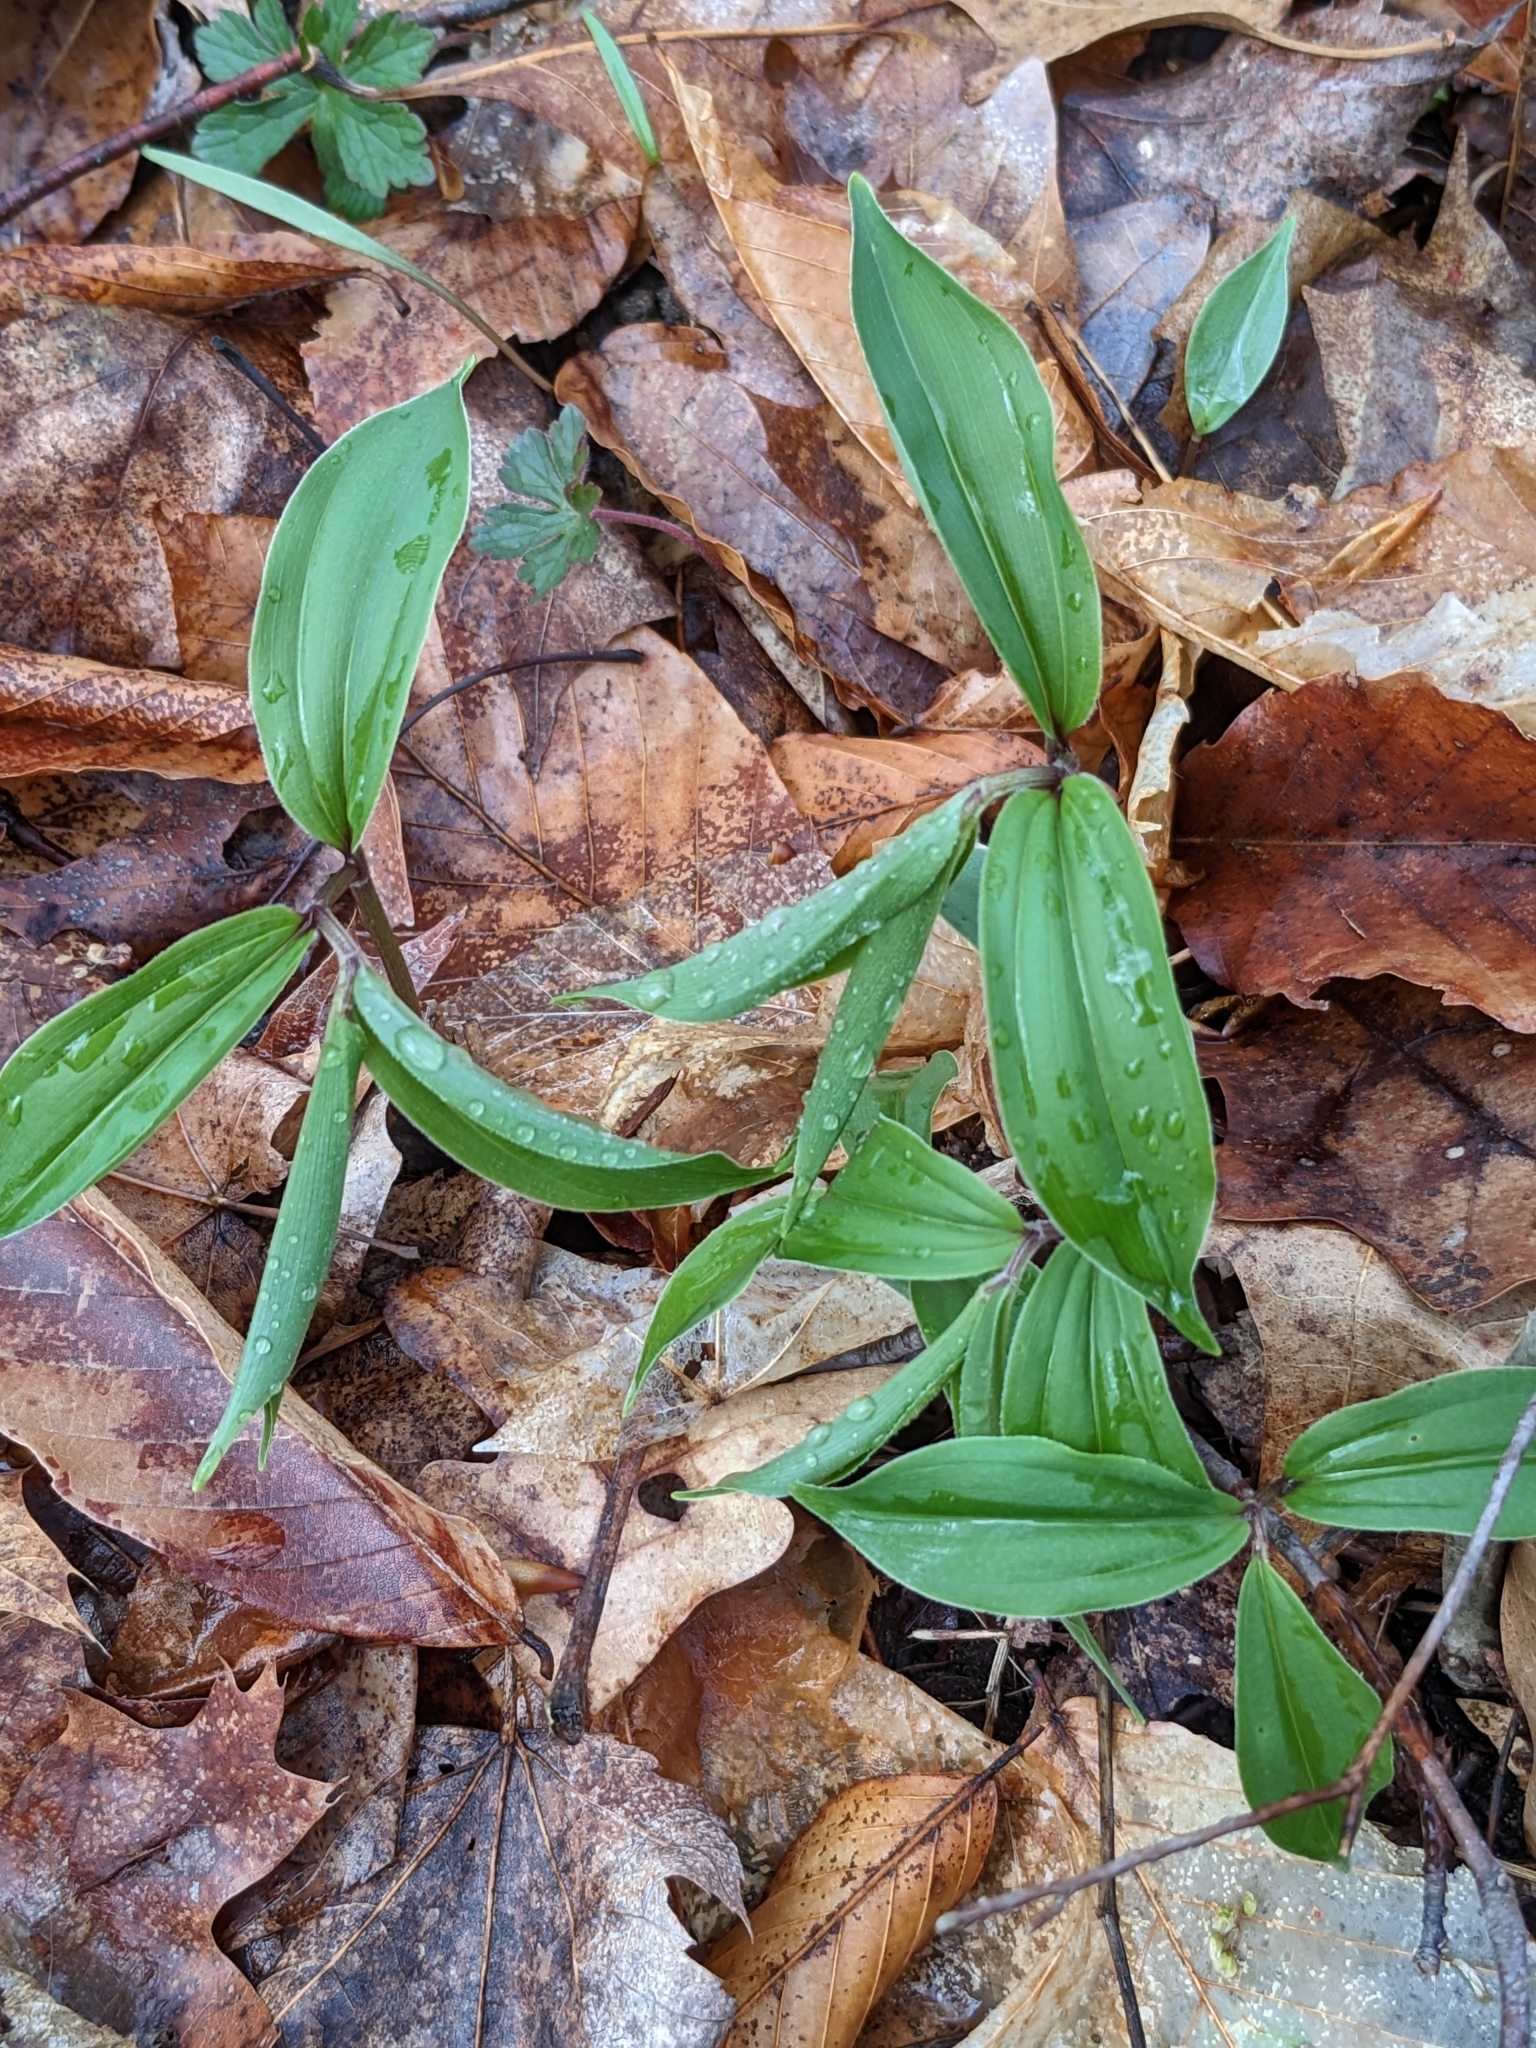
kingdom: Plantae
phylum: Tracheophyta
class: Liliopsida
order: Asparagales
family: Asparagaceae
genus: Maianthemum
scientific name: Maianthemum racemosum
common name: False spikenard
